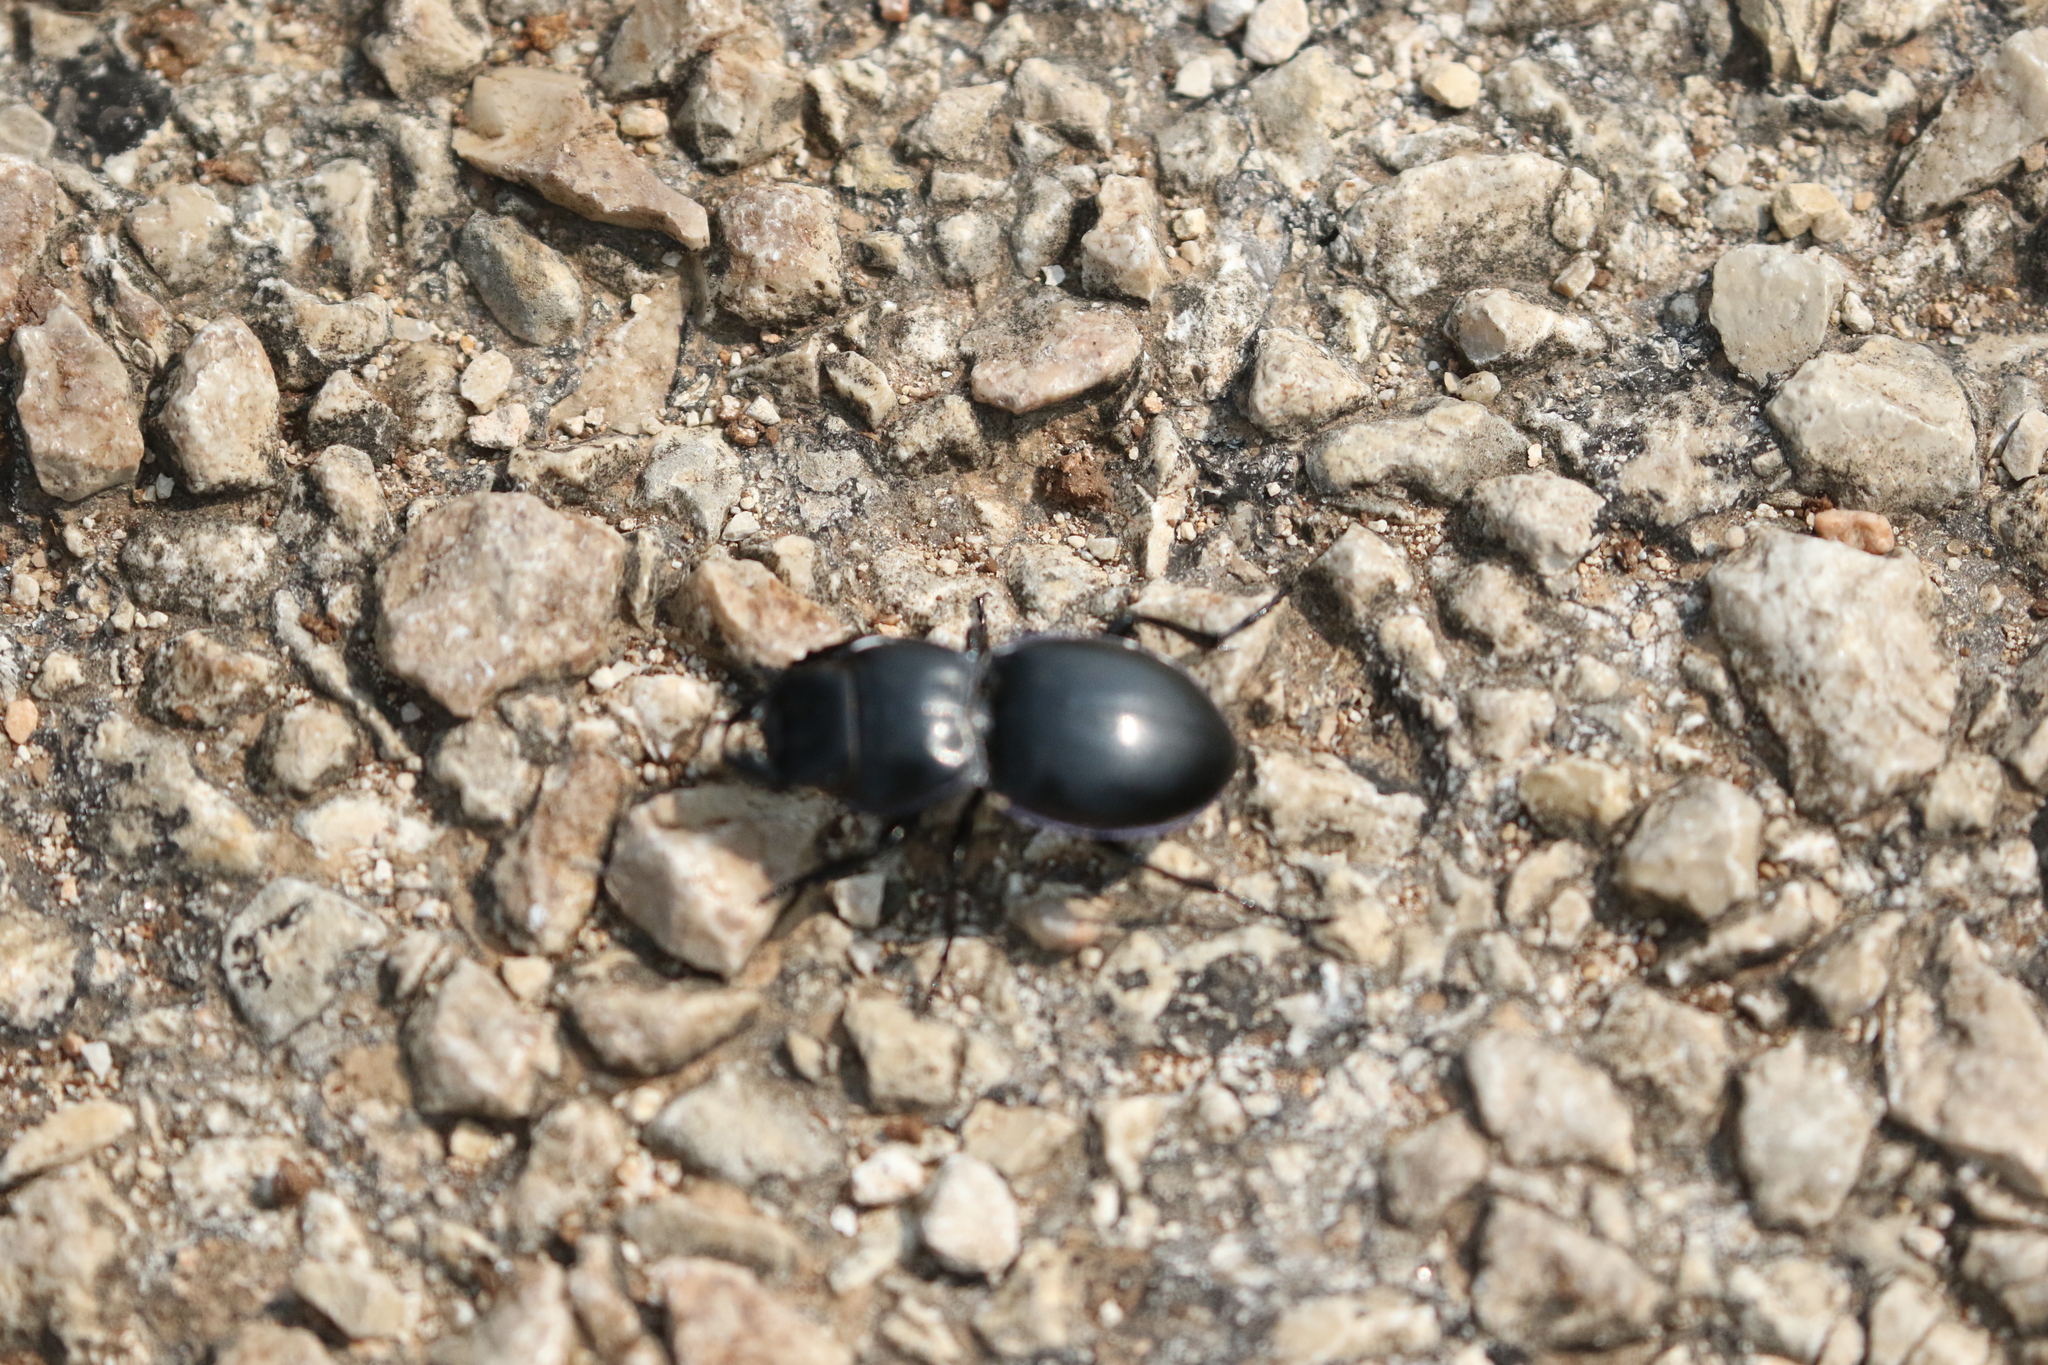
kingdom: Animalia
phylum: Arthropoda
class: Insecta
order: Coleoptera
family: Carabidae
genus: Pasimachus
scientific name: Pasimachus elongatus
